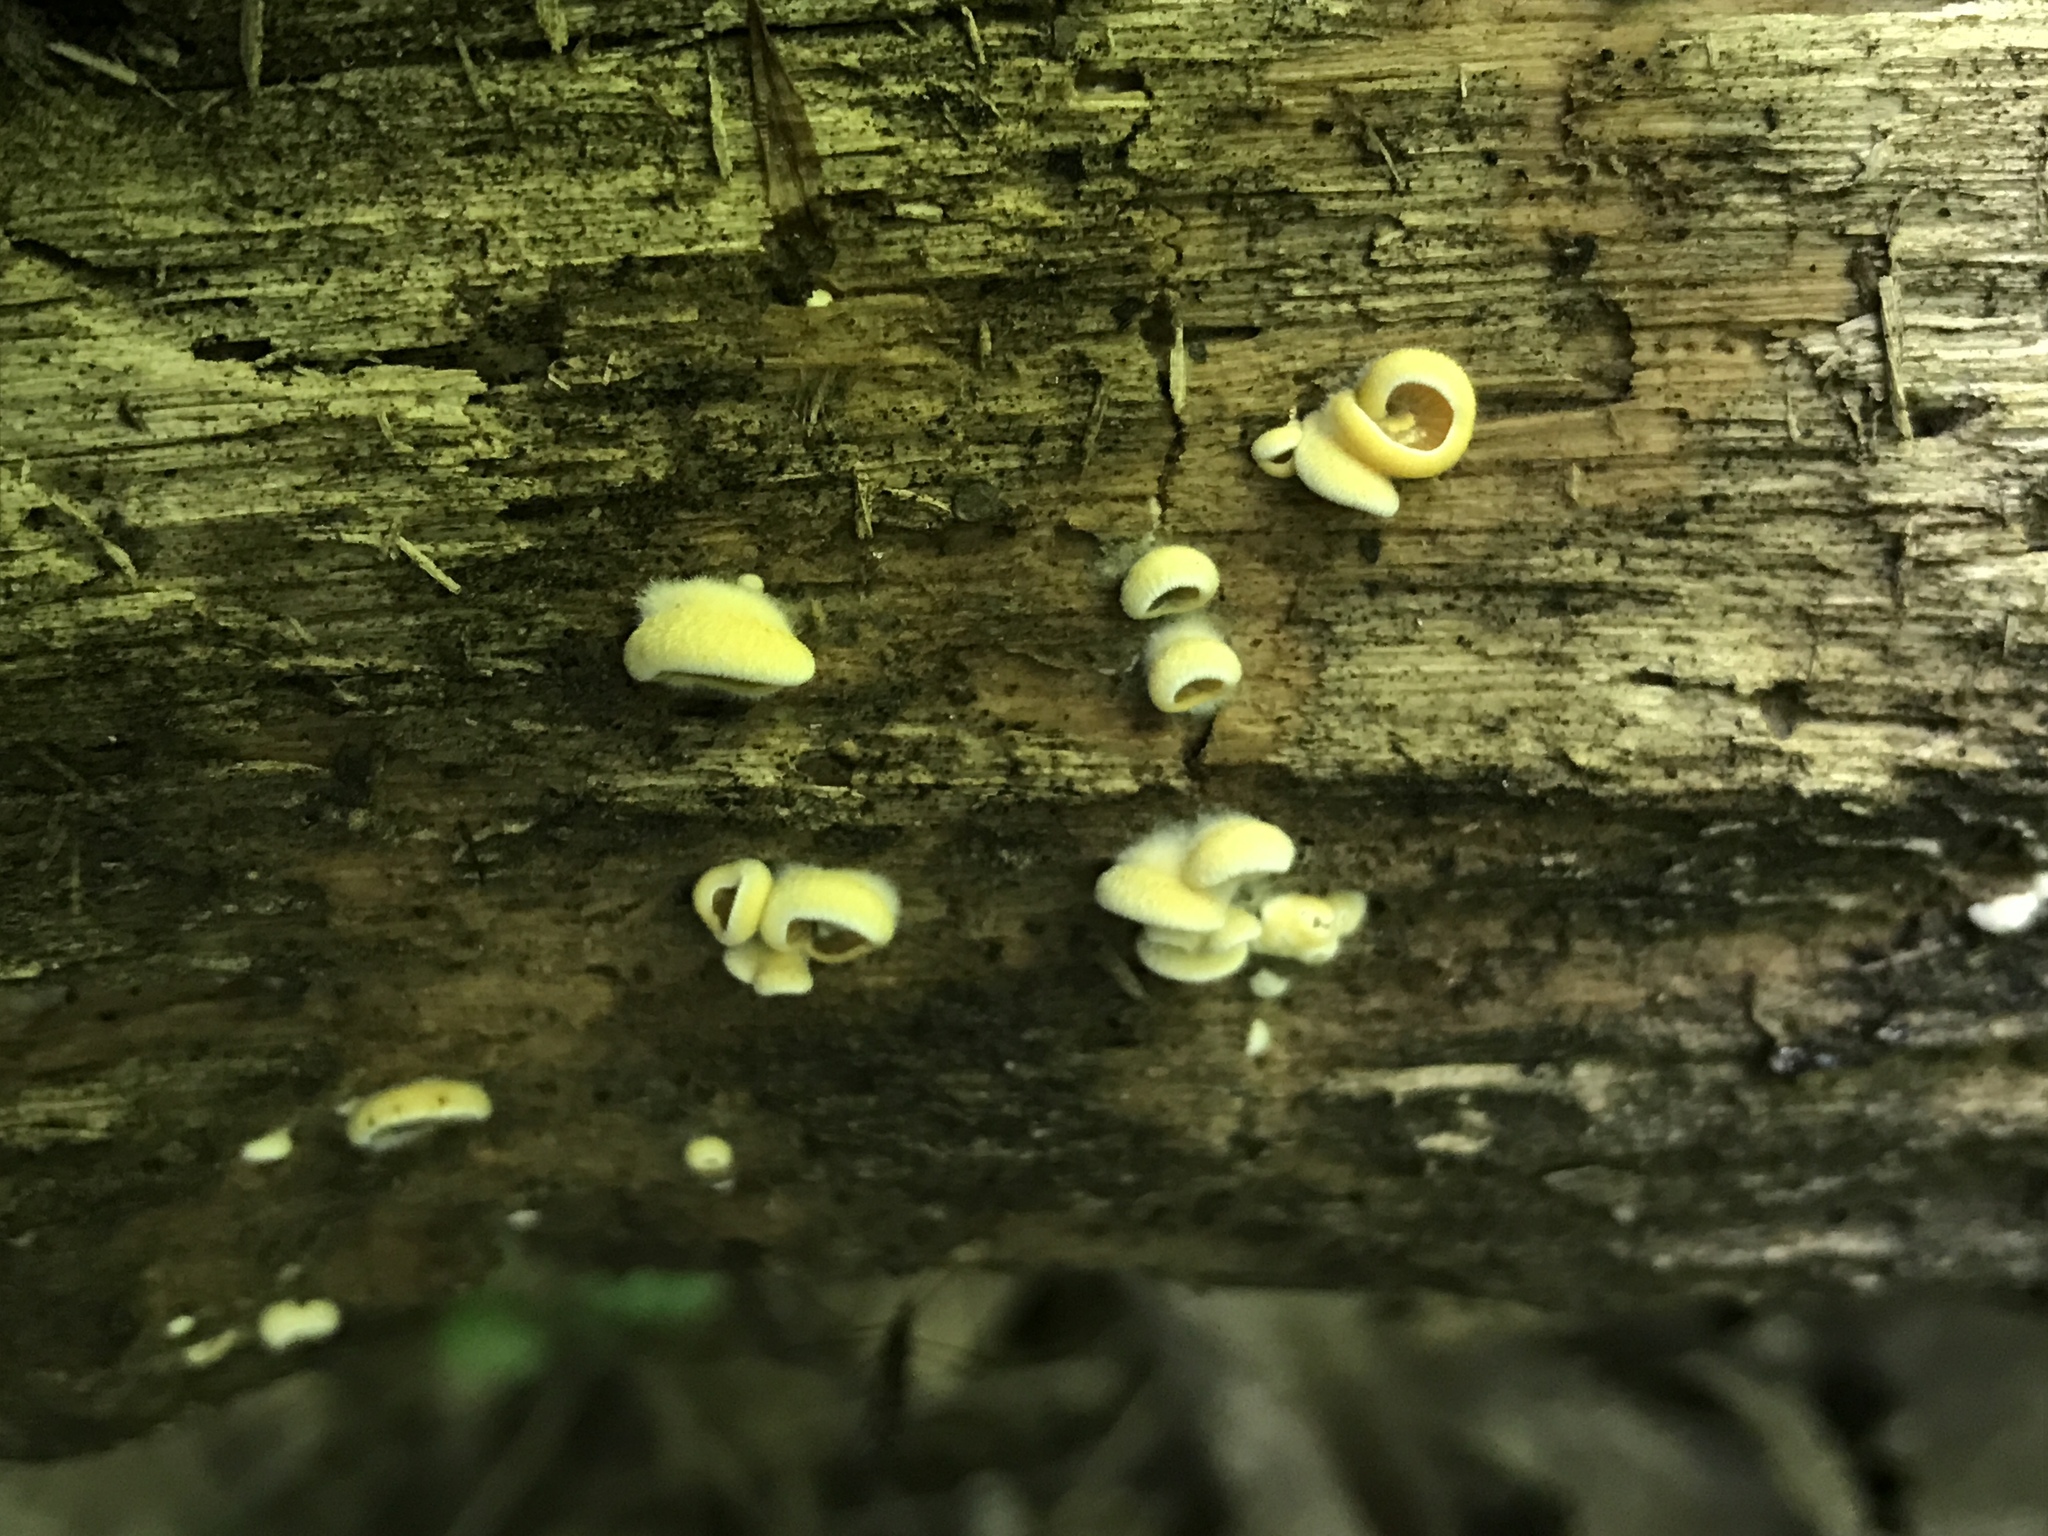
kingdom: Fungi
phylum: Basidiomycota
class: Agaricomycetes
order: Agaricales
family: Phyllotopsidaceae
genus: Phyllotopsis
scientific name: Phyllotopsis nidulans
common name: Orange mock oyster
